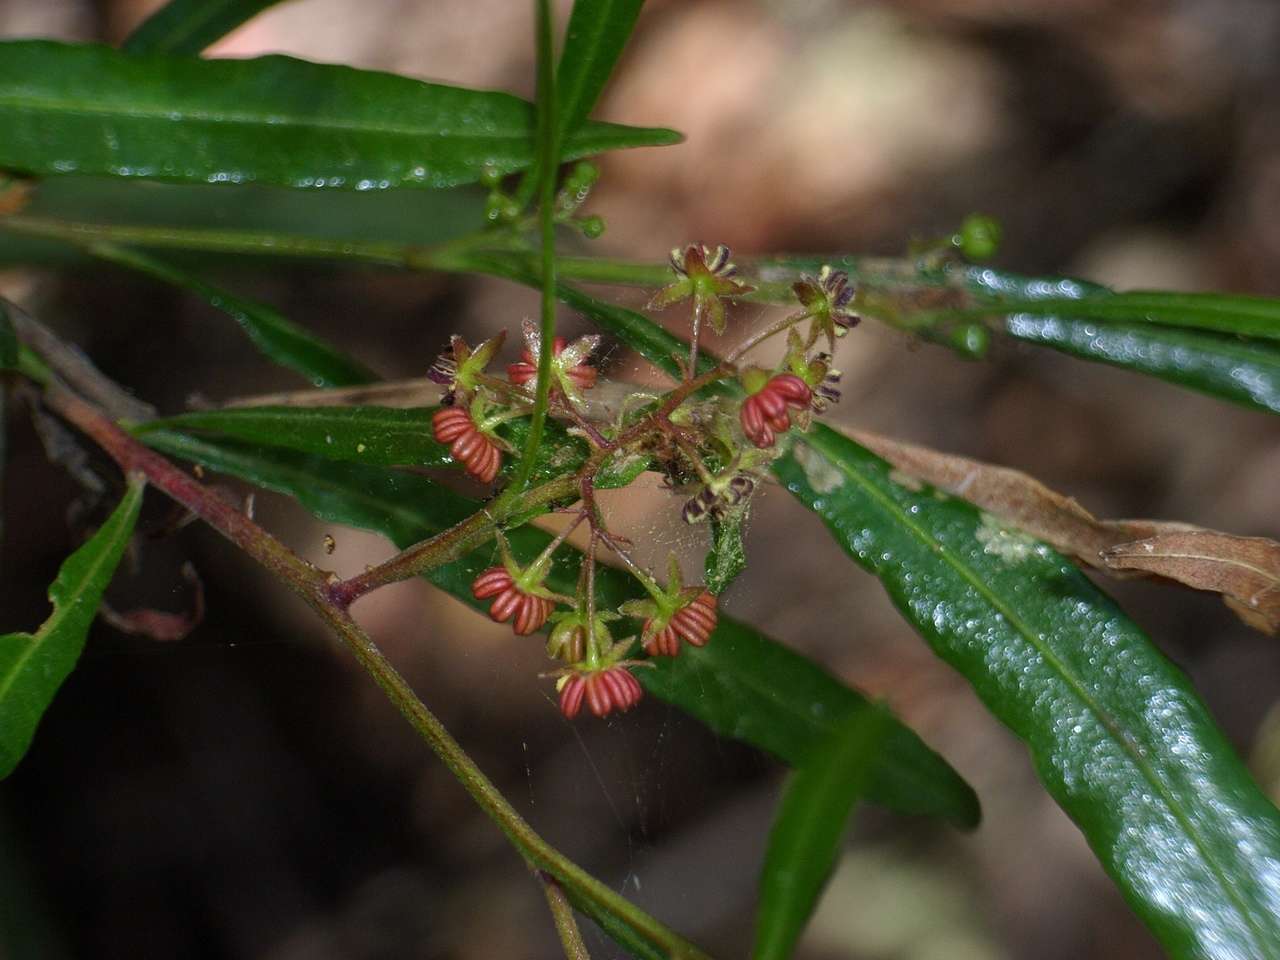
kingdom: Plantae
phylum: Tracheophyta
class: Magnoliopsida
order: Sapindales
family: Sapindaceae
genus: Dodonaea
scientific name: Dodonaea viscosa
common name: Hopbush
